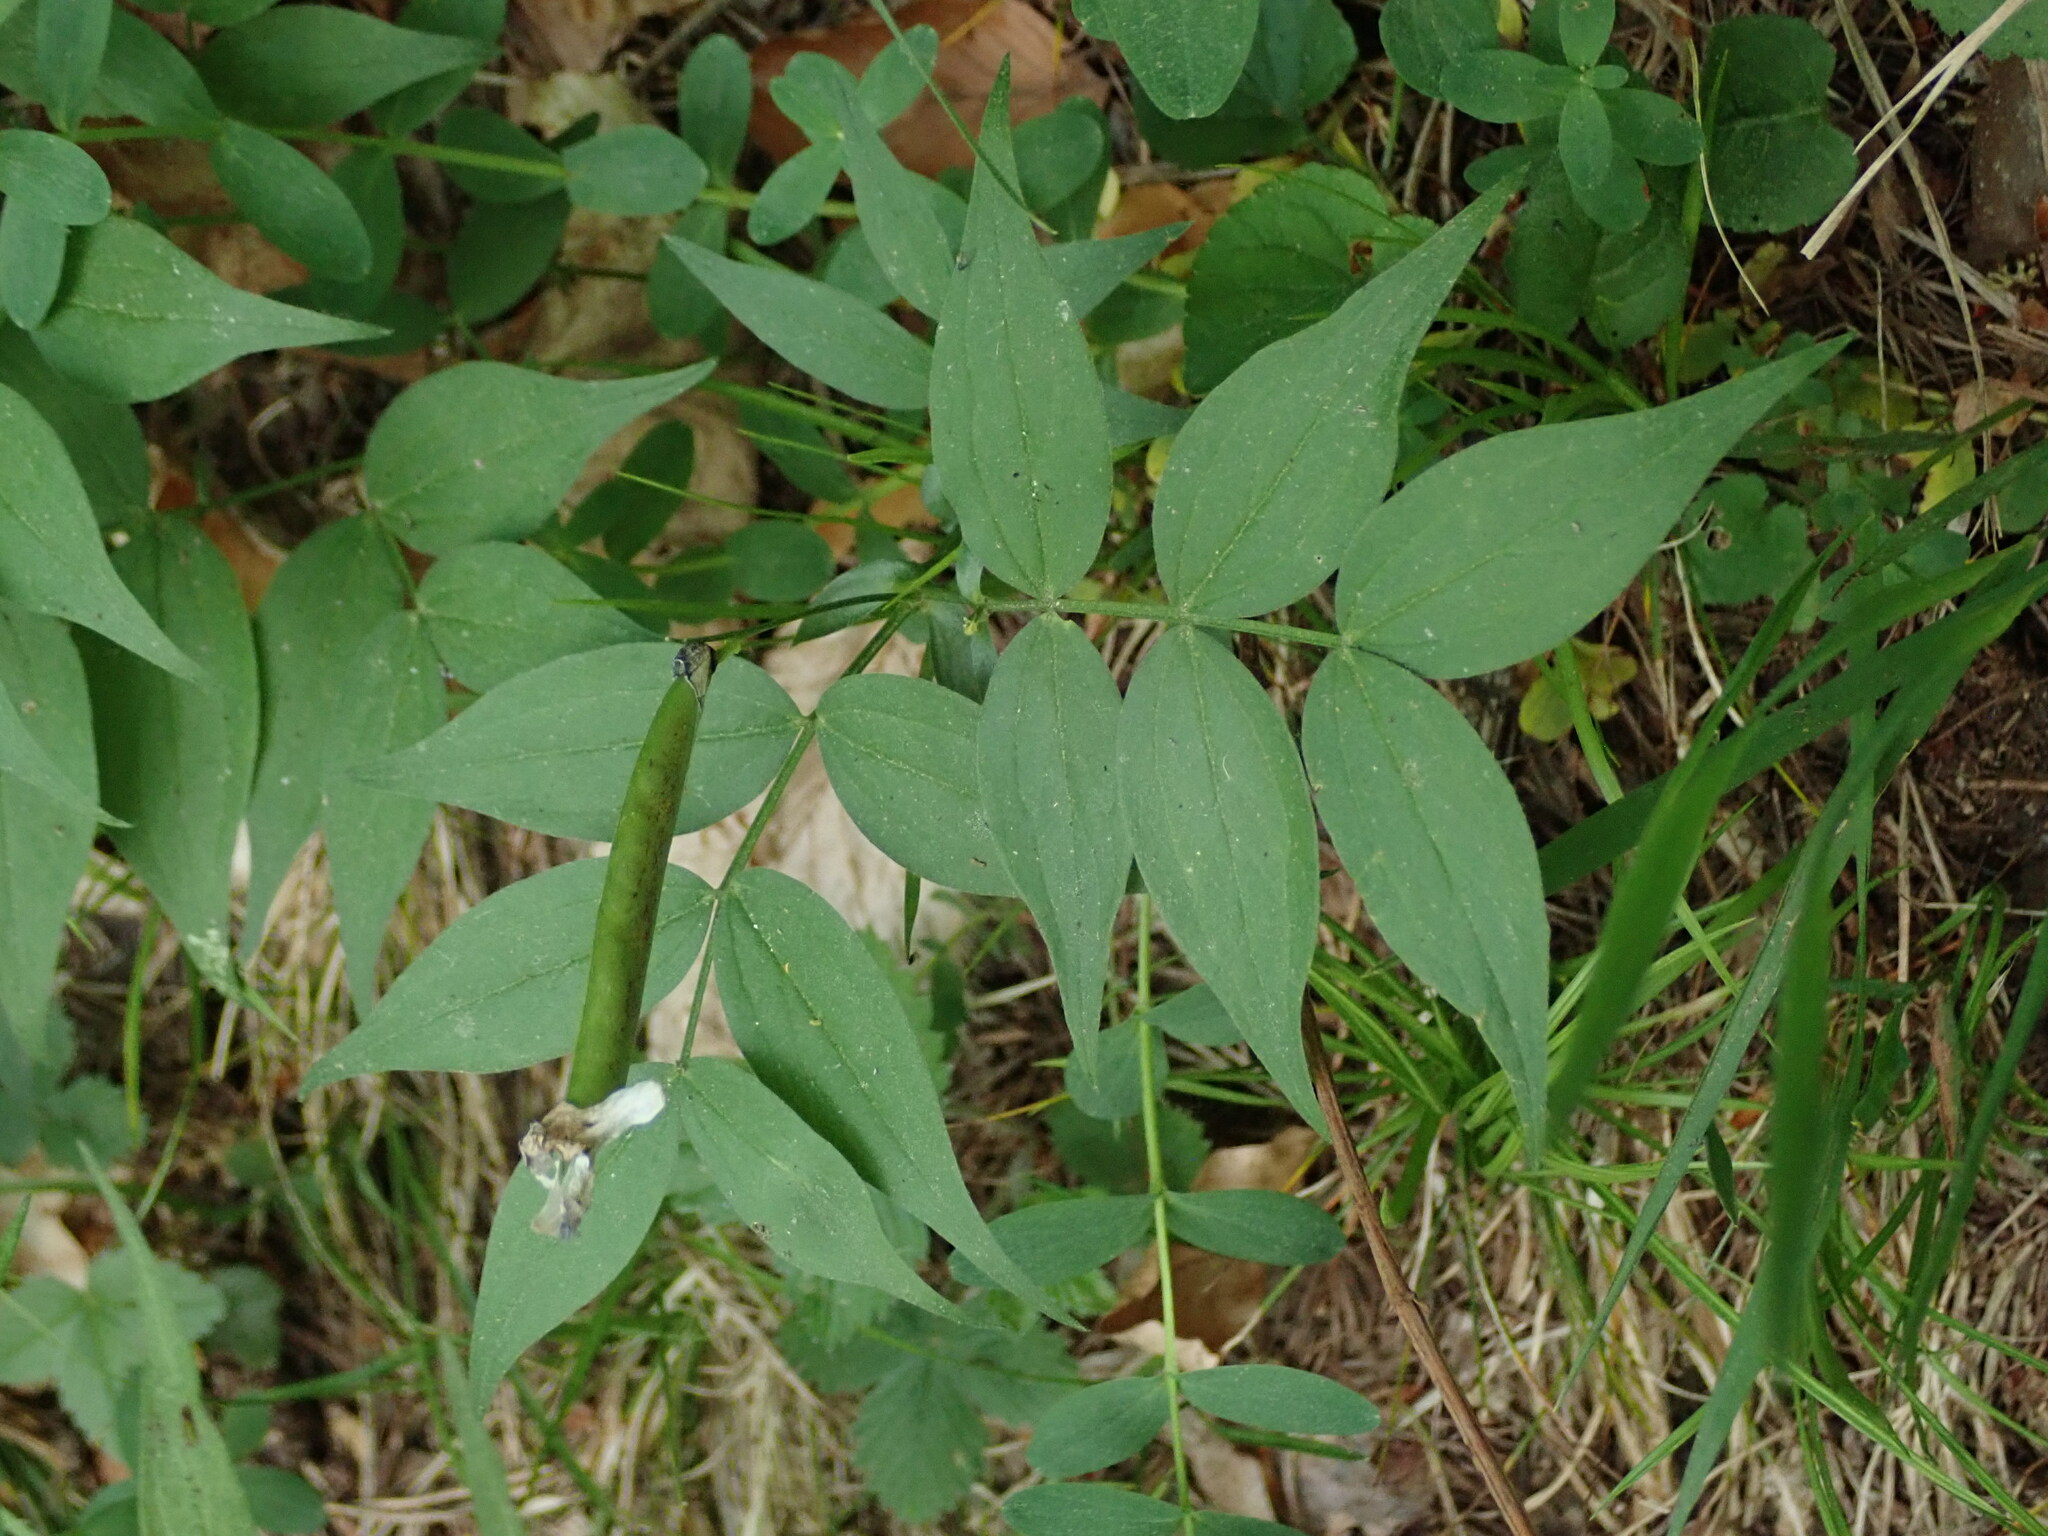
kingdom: Plantae
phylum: Tracheophyta
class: Magnoliopsida
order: Fabales
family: Fabaceae
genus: Lathyrus
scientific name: Lathyrus vernus
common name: Spring pea
